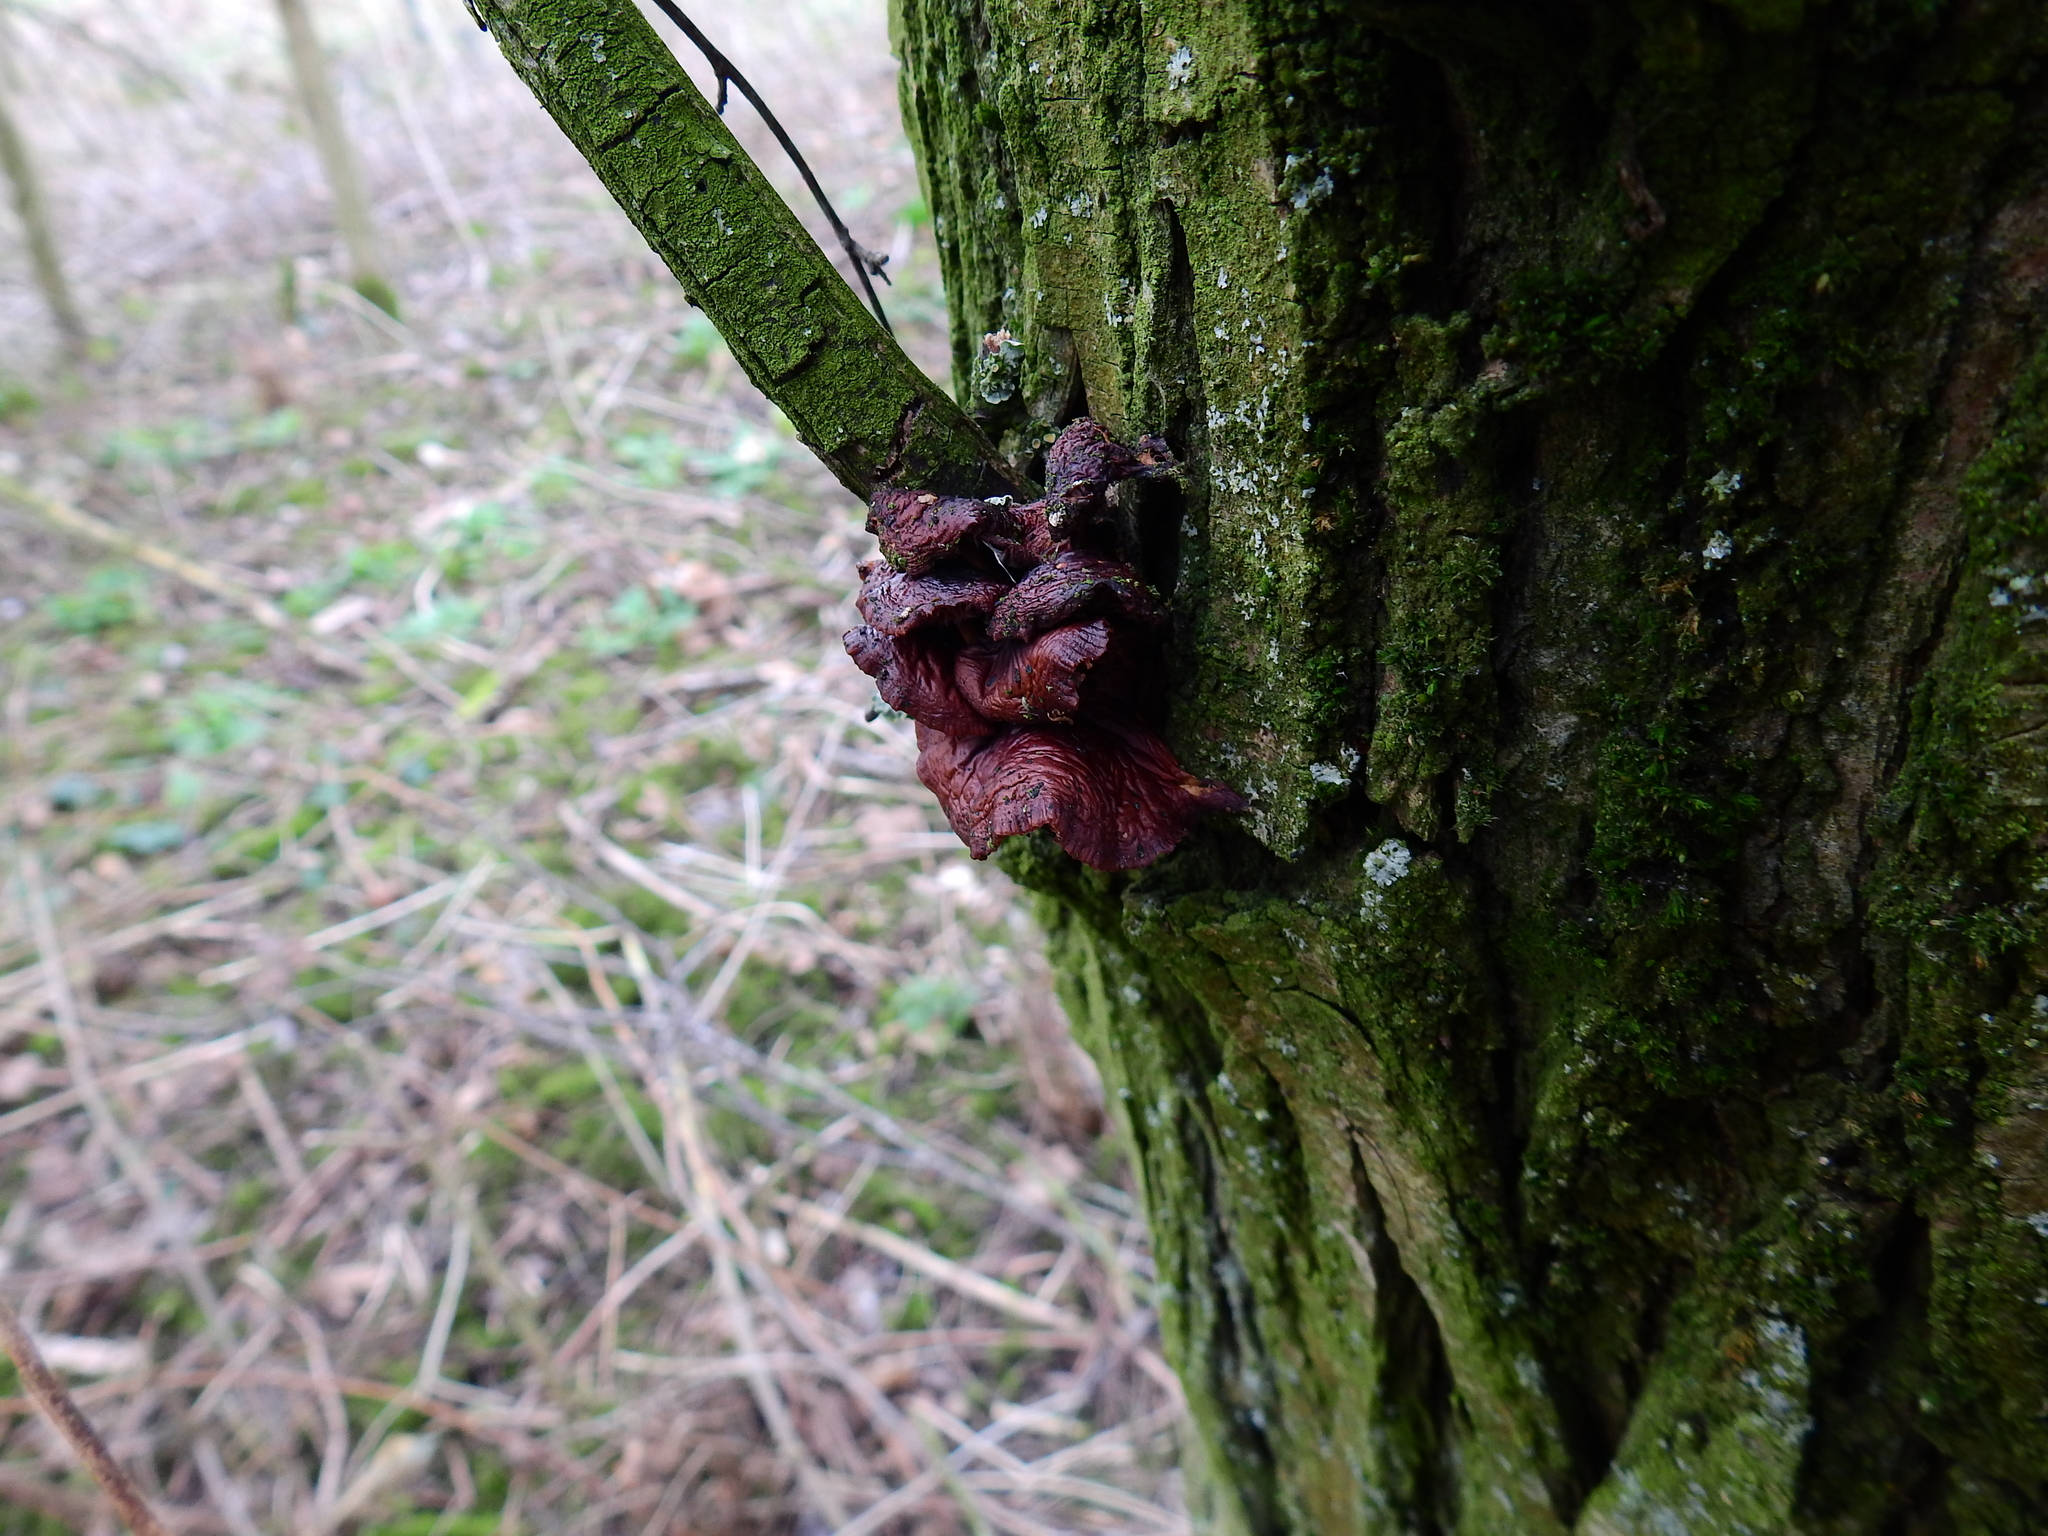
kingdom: Fungi
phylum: Basidiomycota
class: Agaricomycetes
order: Agaricales
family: Physalacriaceae
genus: Flammulina
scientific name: Flammulina
